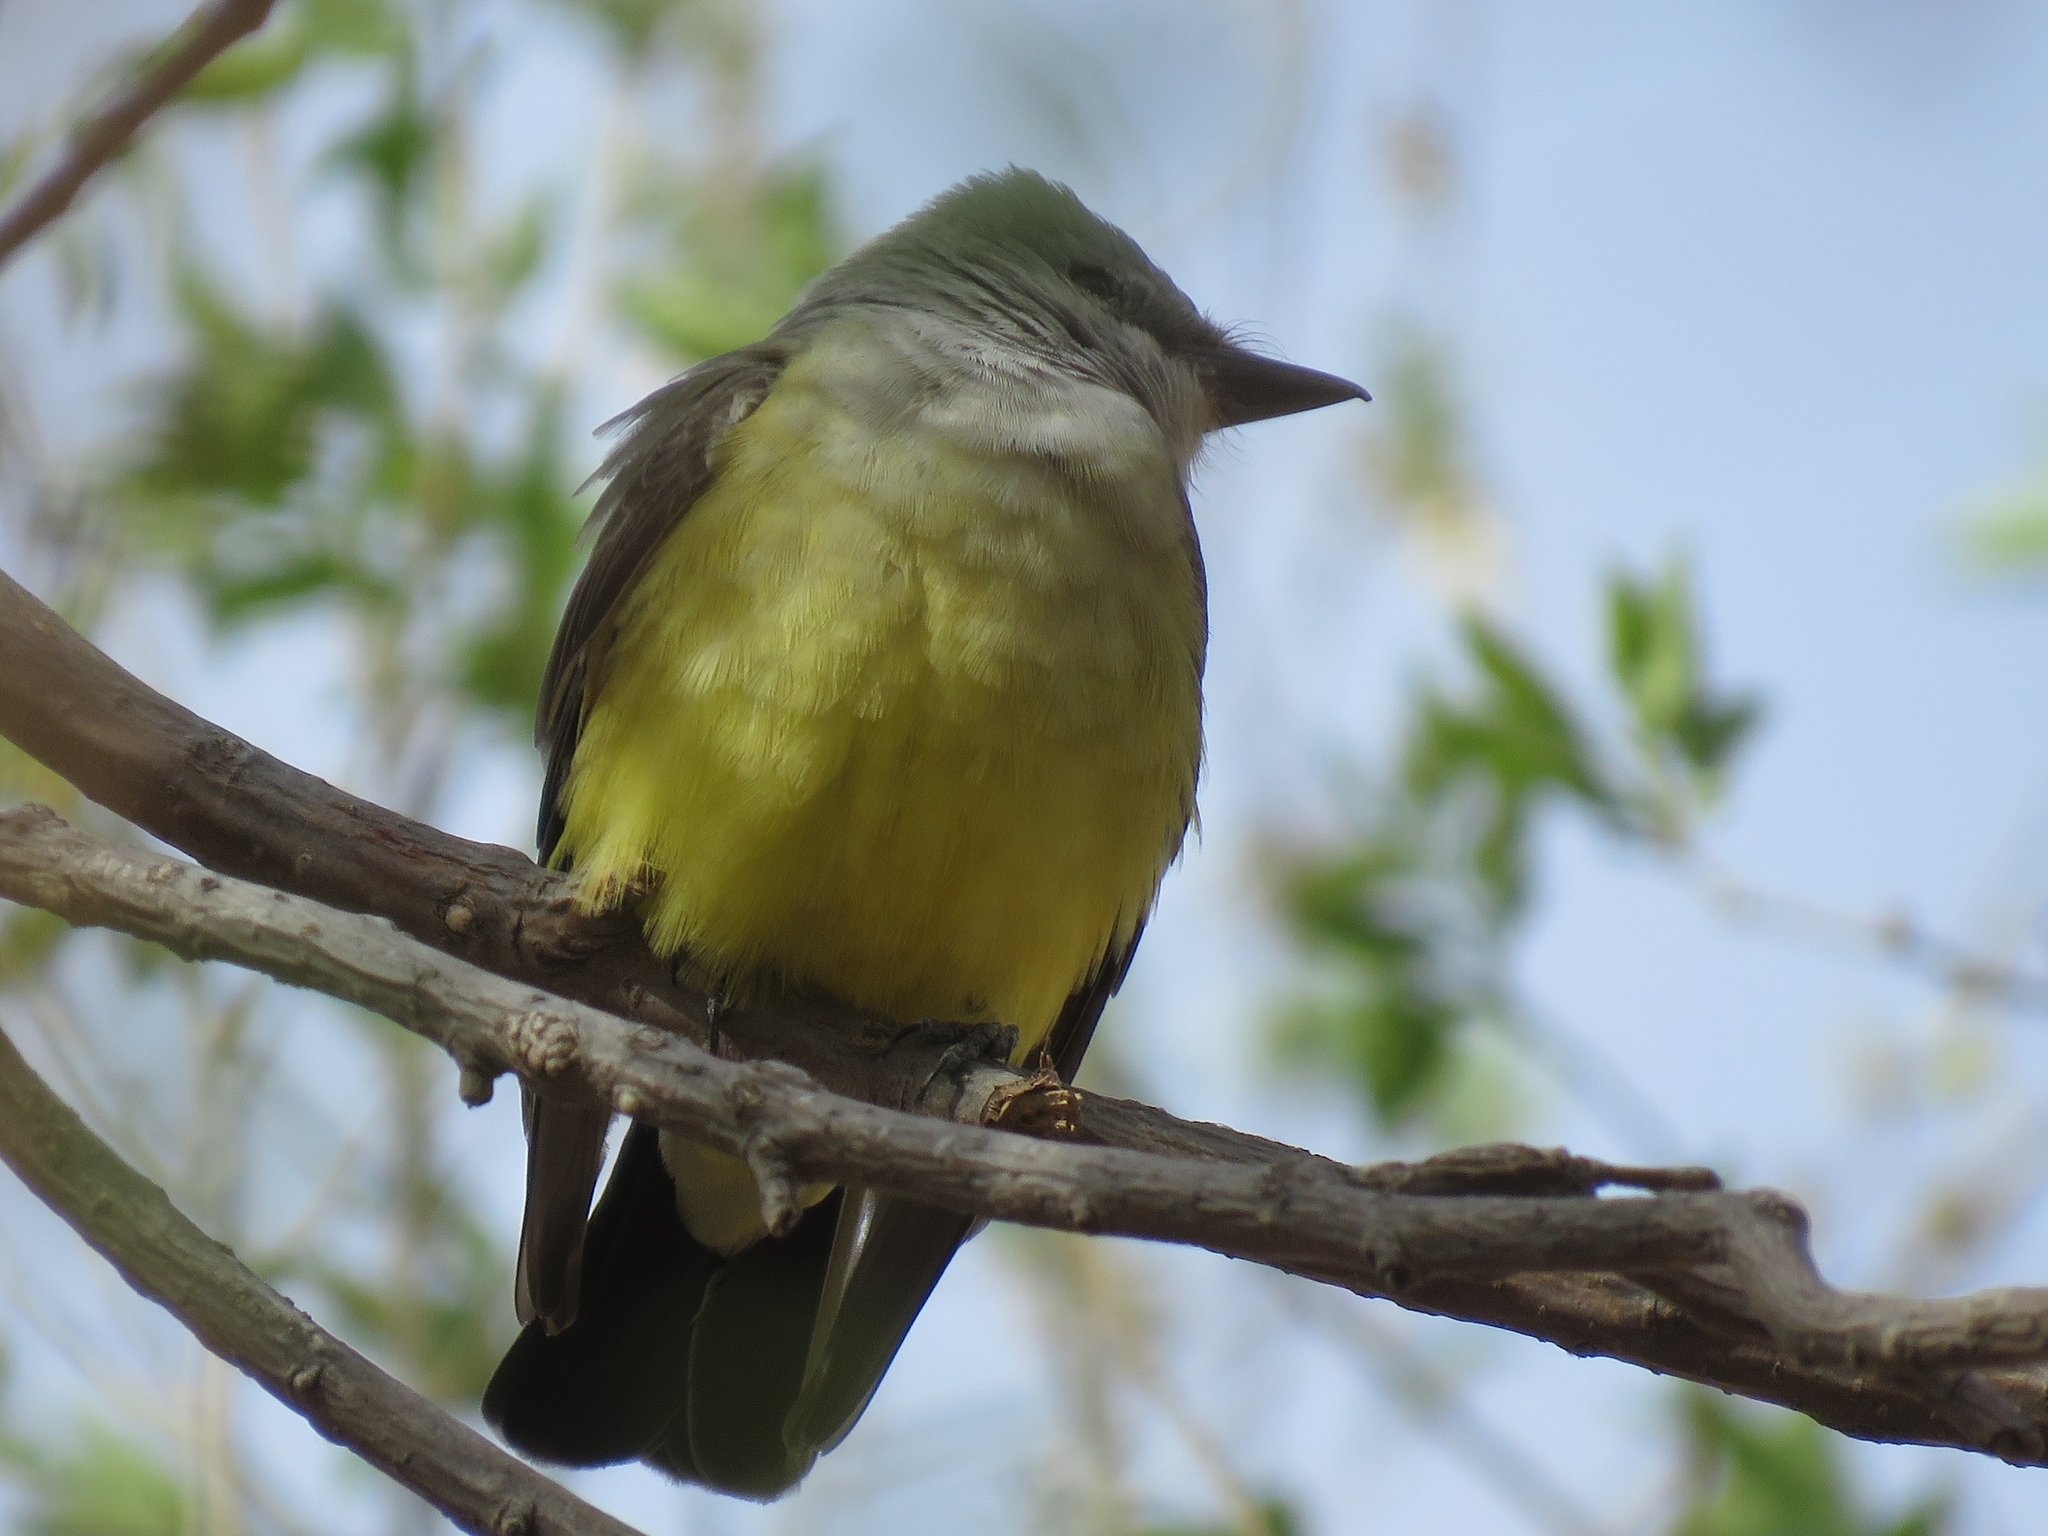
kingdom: Animalia
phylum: Chordata
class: Aves
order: Passeriformes
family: Tyrannidae
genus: Tyrannus
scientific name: Tyrannus verticalis
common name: Western kingbird
